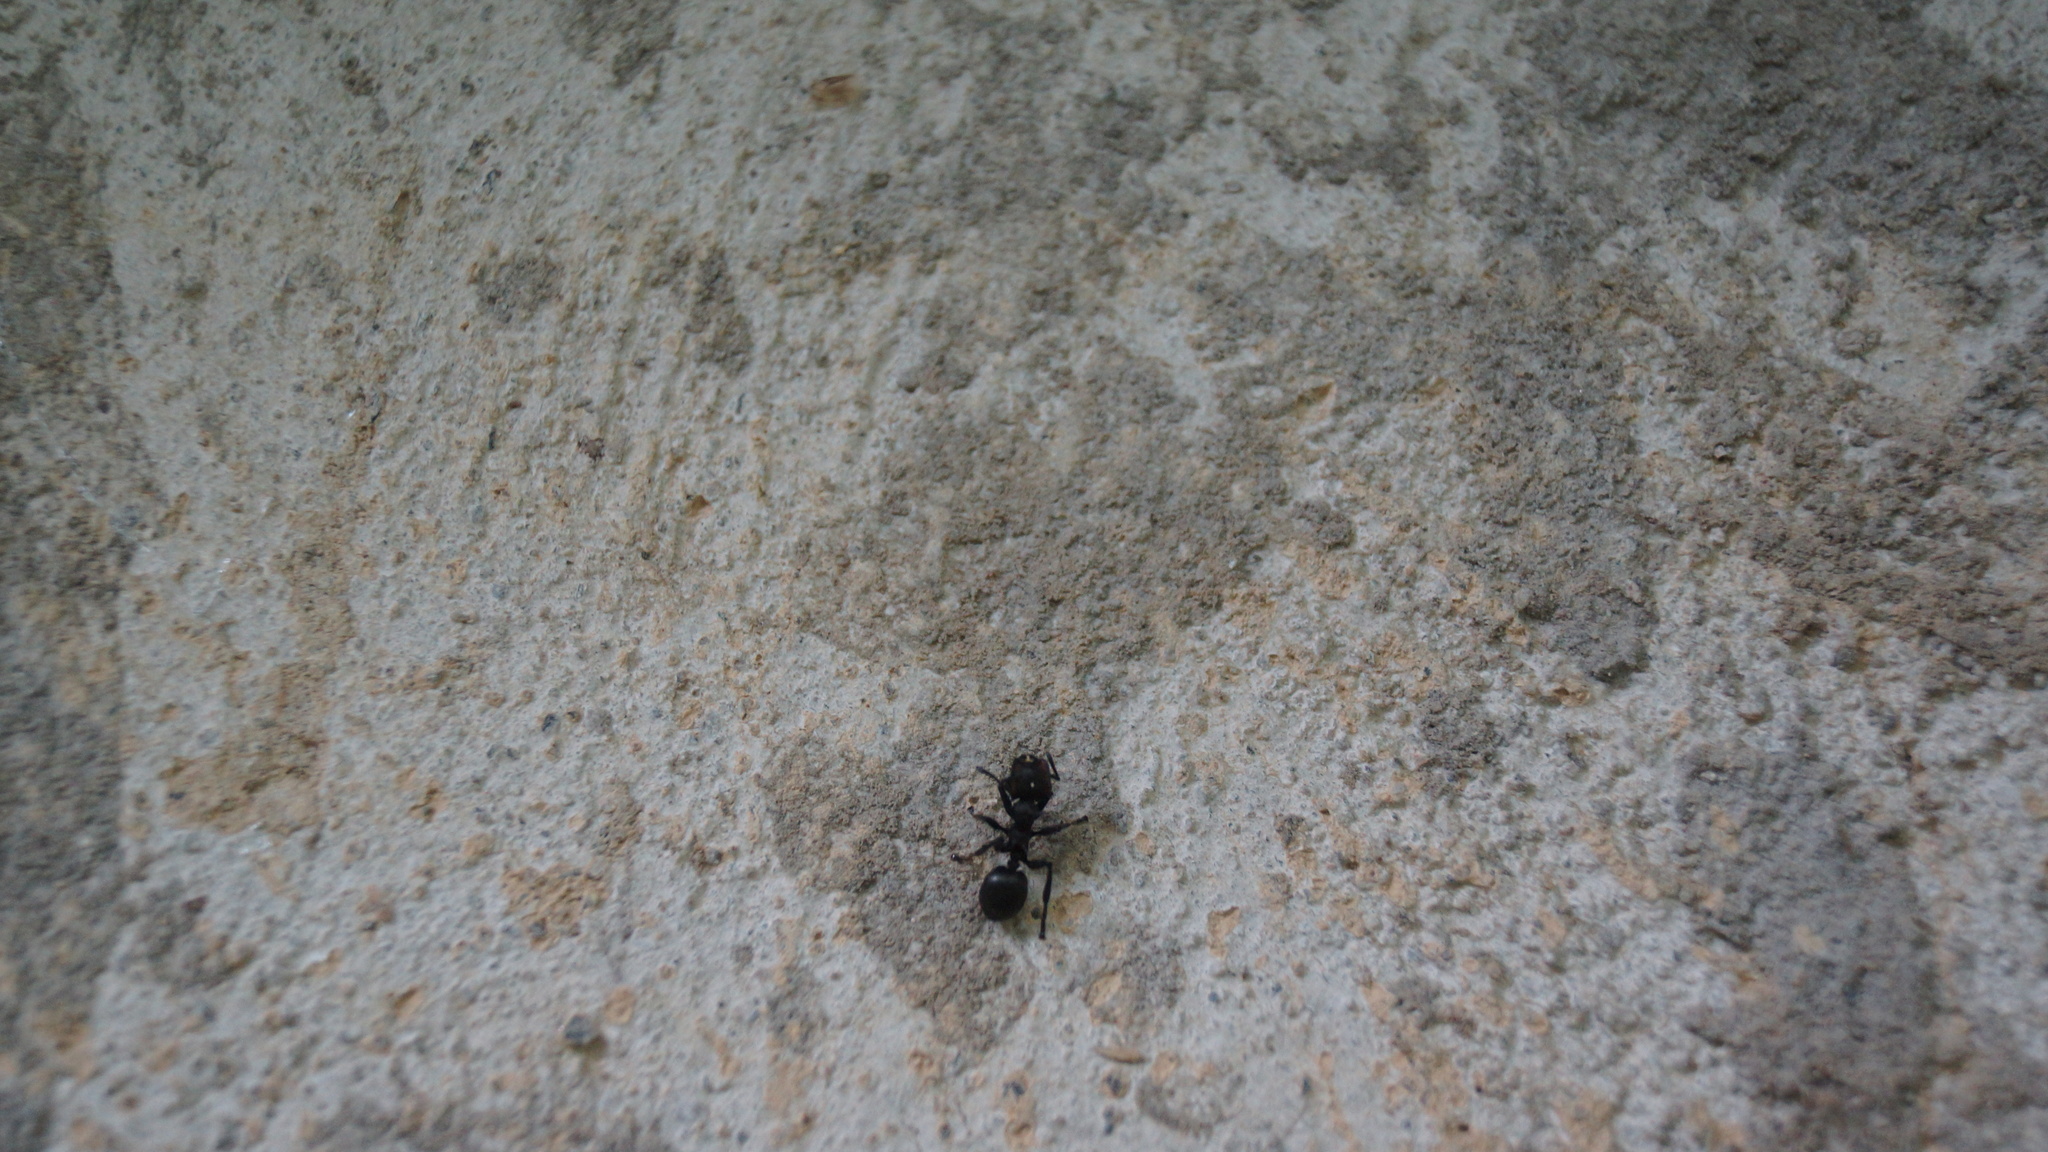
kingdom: Animalia
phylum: Arthropoda
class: Insecta
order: Hymenoptera
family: Formicidae
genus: Cephalotes
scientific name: Cephalotes atratus
